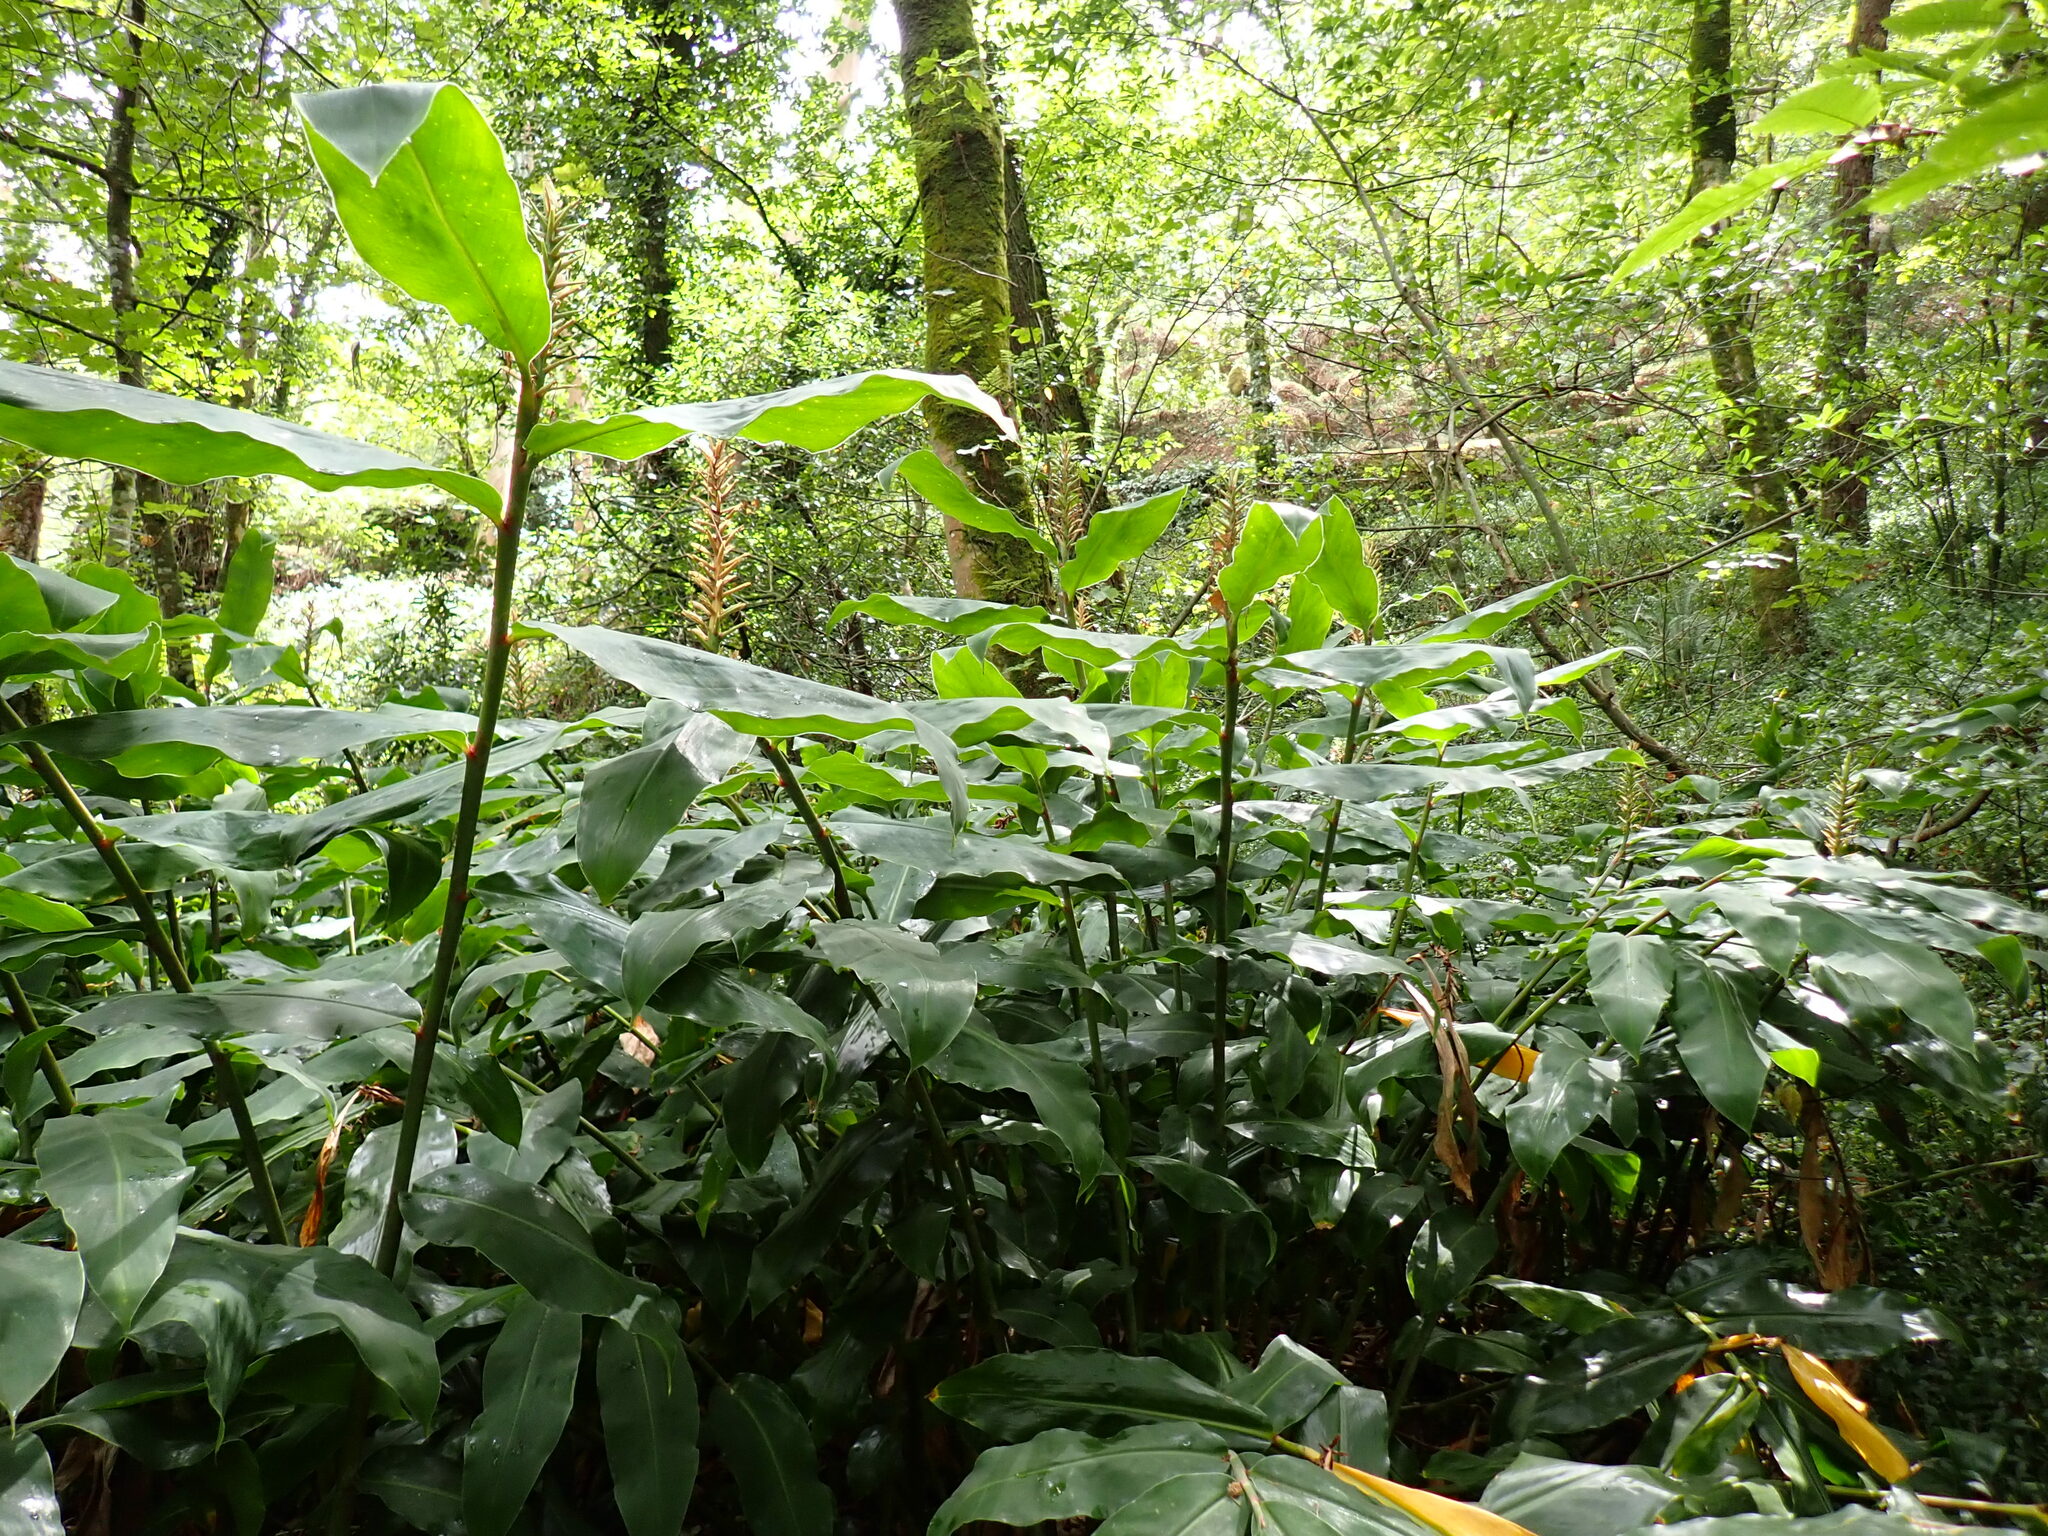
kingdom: Plantae
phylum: Tracheophyta
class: Liliopsida
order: Zingiberales
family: Zingiberaceae
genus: Hedychium
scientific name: Hedychium gardnerianum
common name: Himalayan ginger
